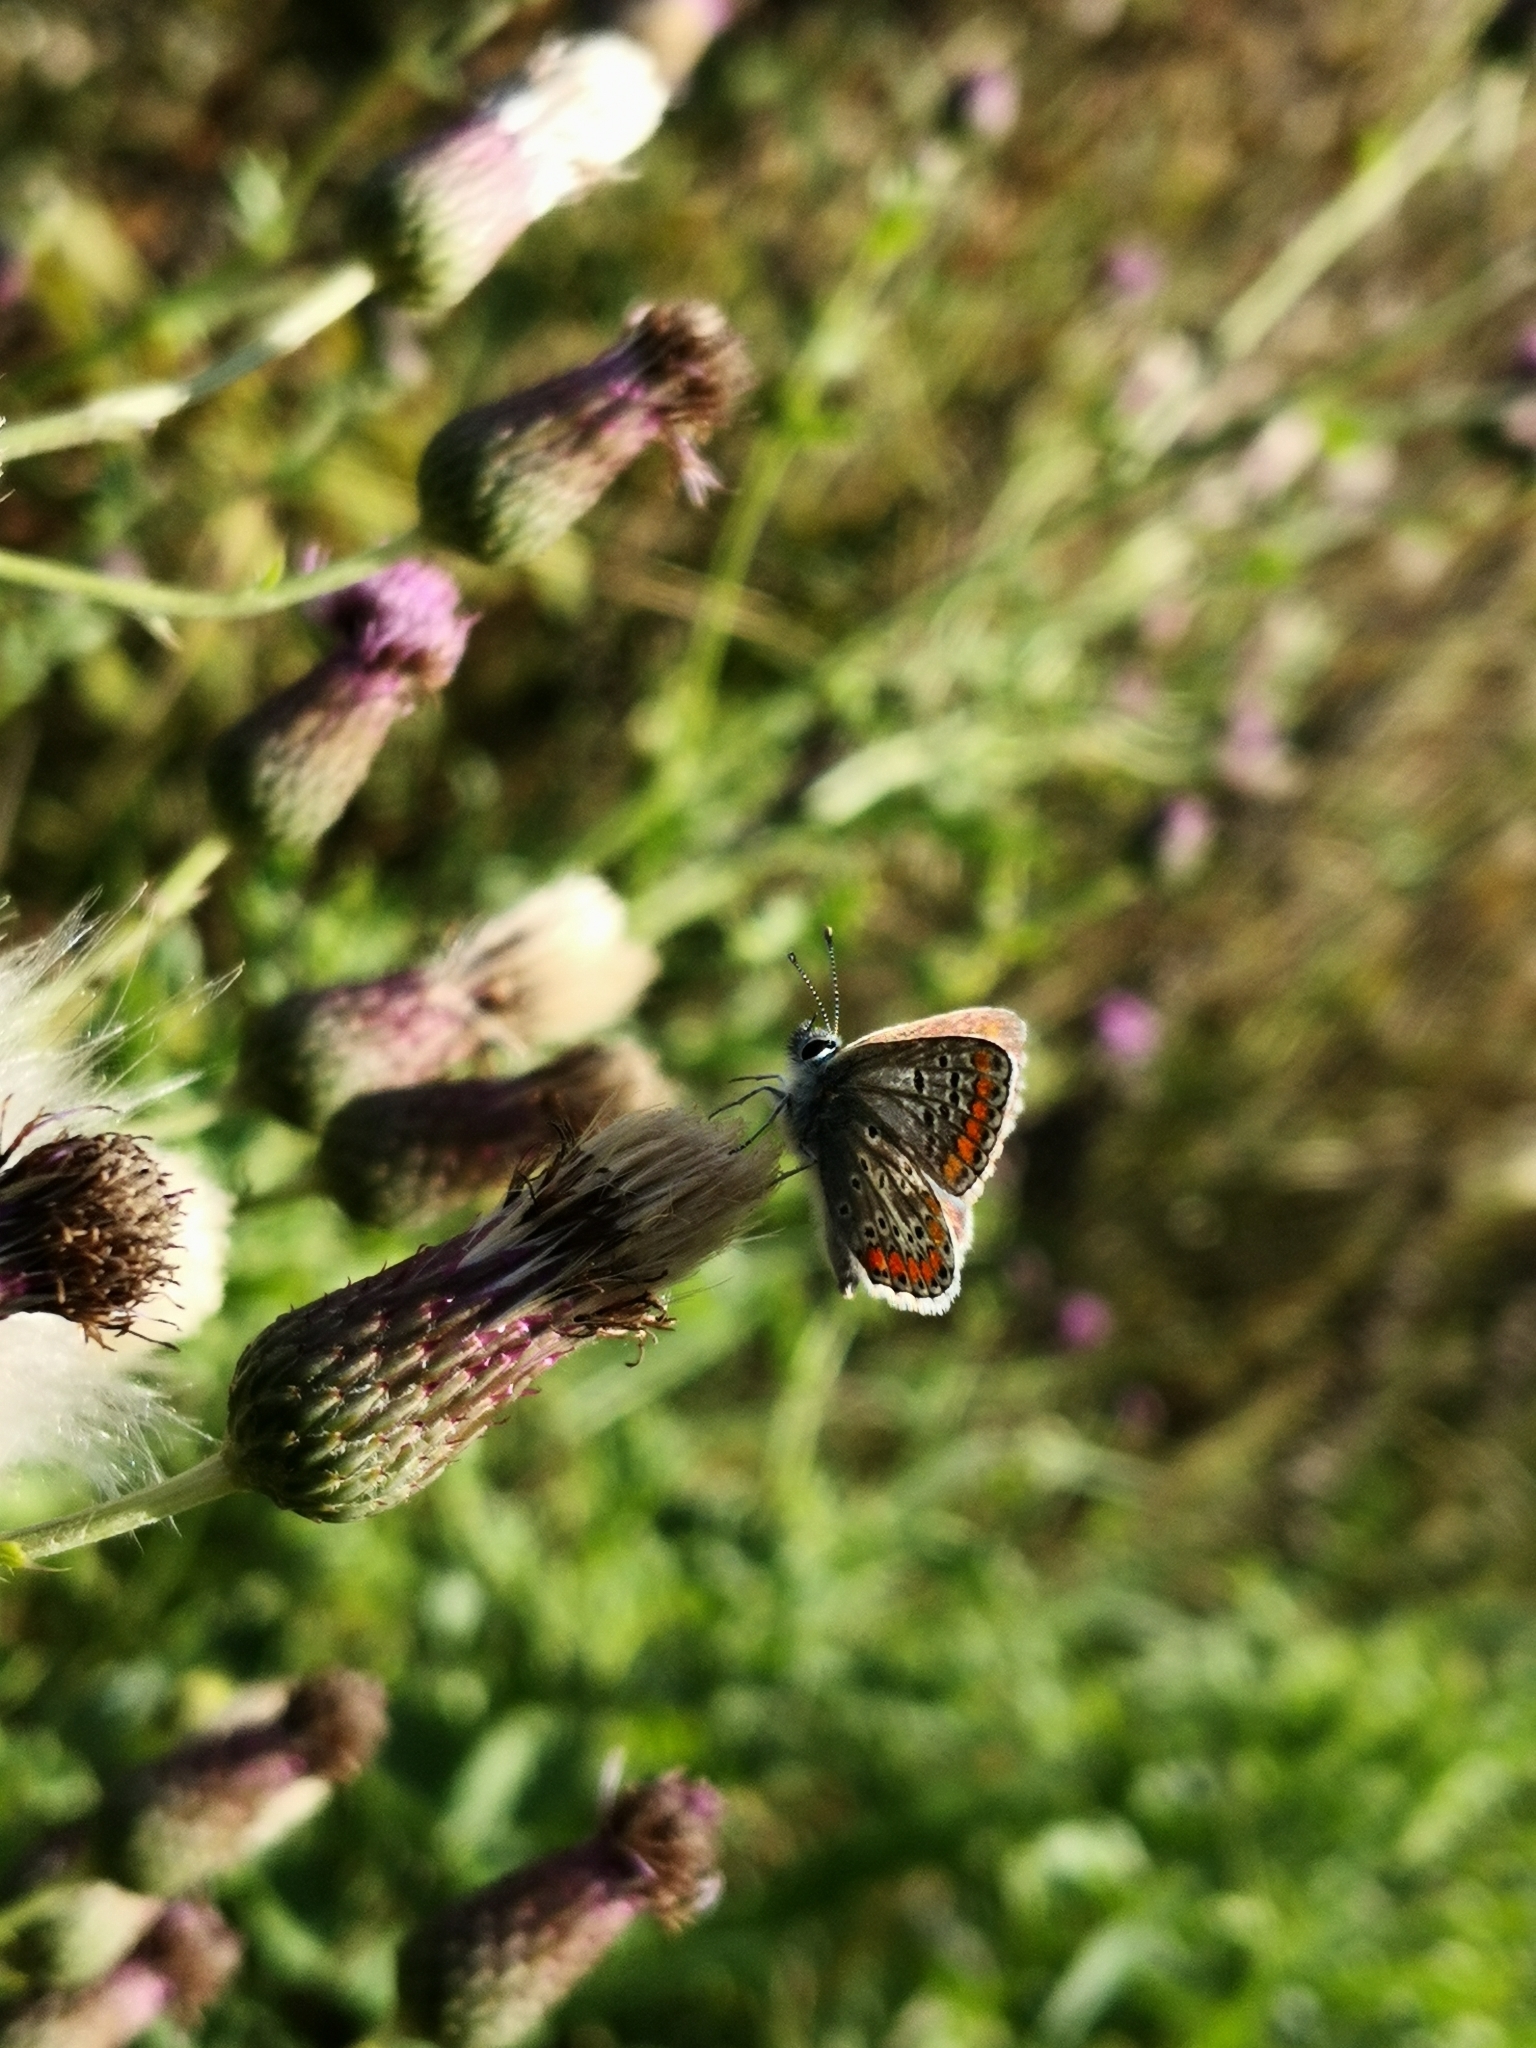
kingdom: Animalia
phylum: Arthropoda
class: Insecta
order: Lepidoptera
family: Lycaenidae
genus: Aricia
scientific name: Aricia agestis
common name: Brown argus
